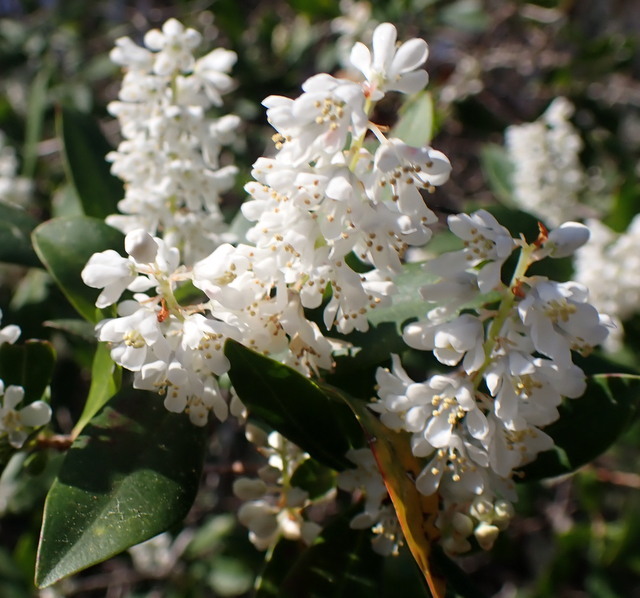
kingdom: Plantae
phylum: Tracheophyta
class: Magnoliopsida
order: Ericales
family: Cyrillaceae
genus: Cliftonia
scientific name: Cliftonia monophylla
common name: Titi
